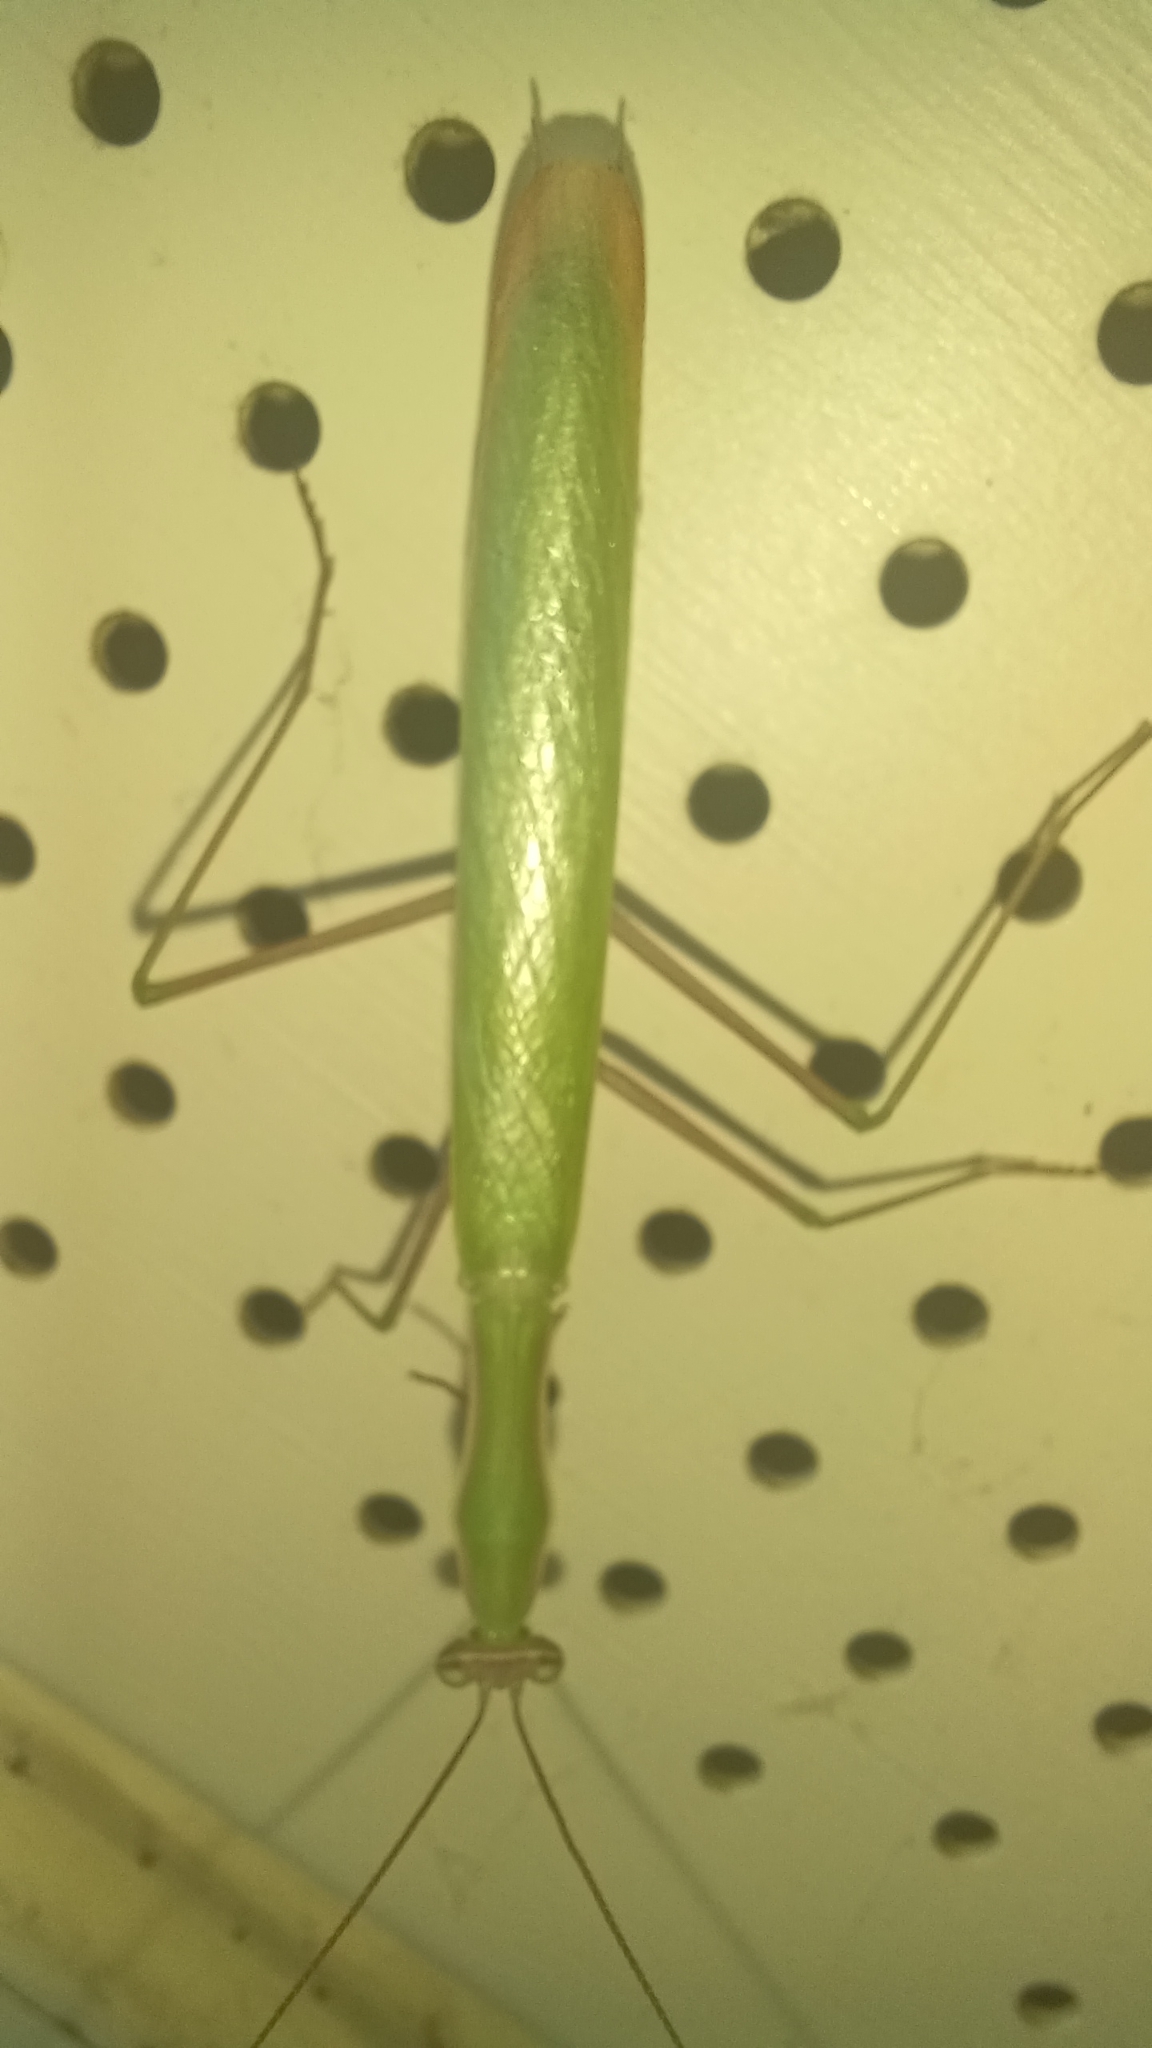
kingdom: Animalia
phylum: Arthropoda
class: Insecta
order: Mantodea
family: Mantidae
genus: Mantis
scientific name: Mantis religiosa
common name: Praying mantis
